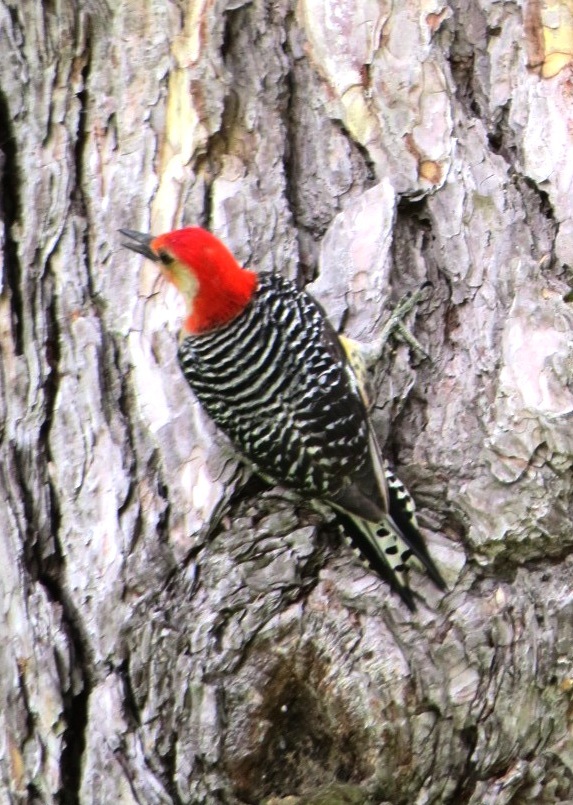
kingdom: Animalia
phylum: Chordata
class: Aves
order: Piciformes
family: Picidae
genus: Melanerpes
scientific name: Melanerpes carolinus
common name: Red-bellied woodpecker
